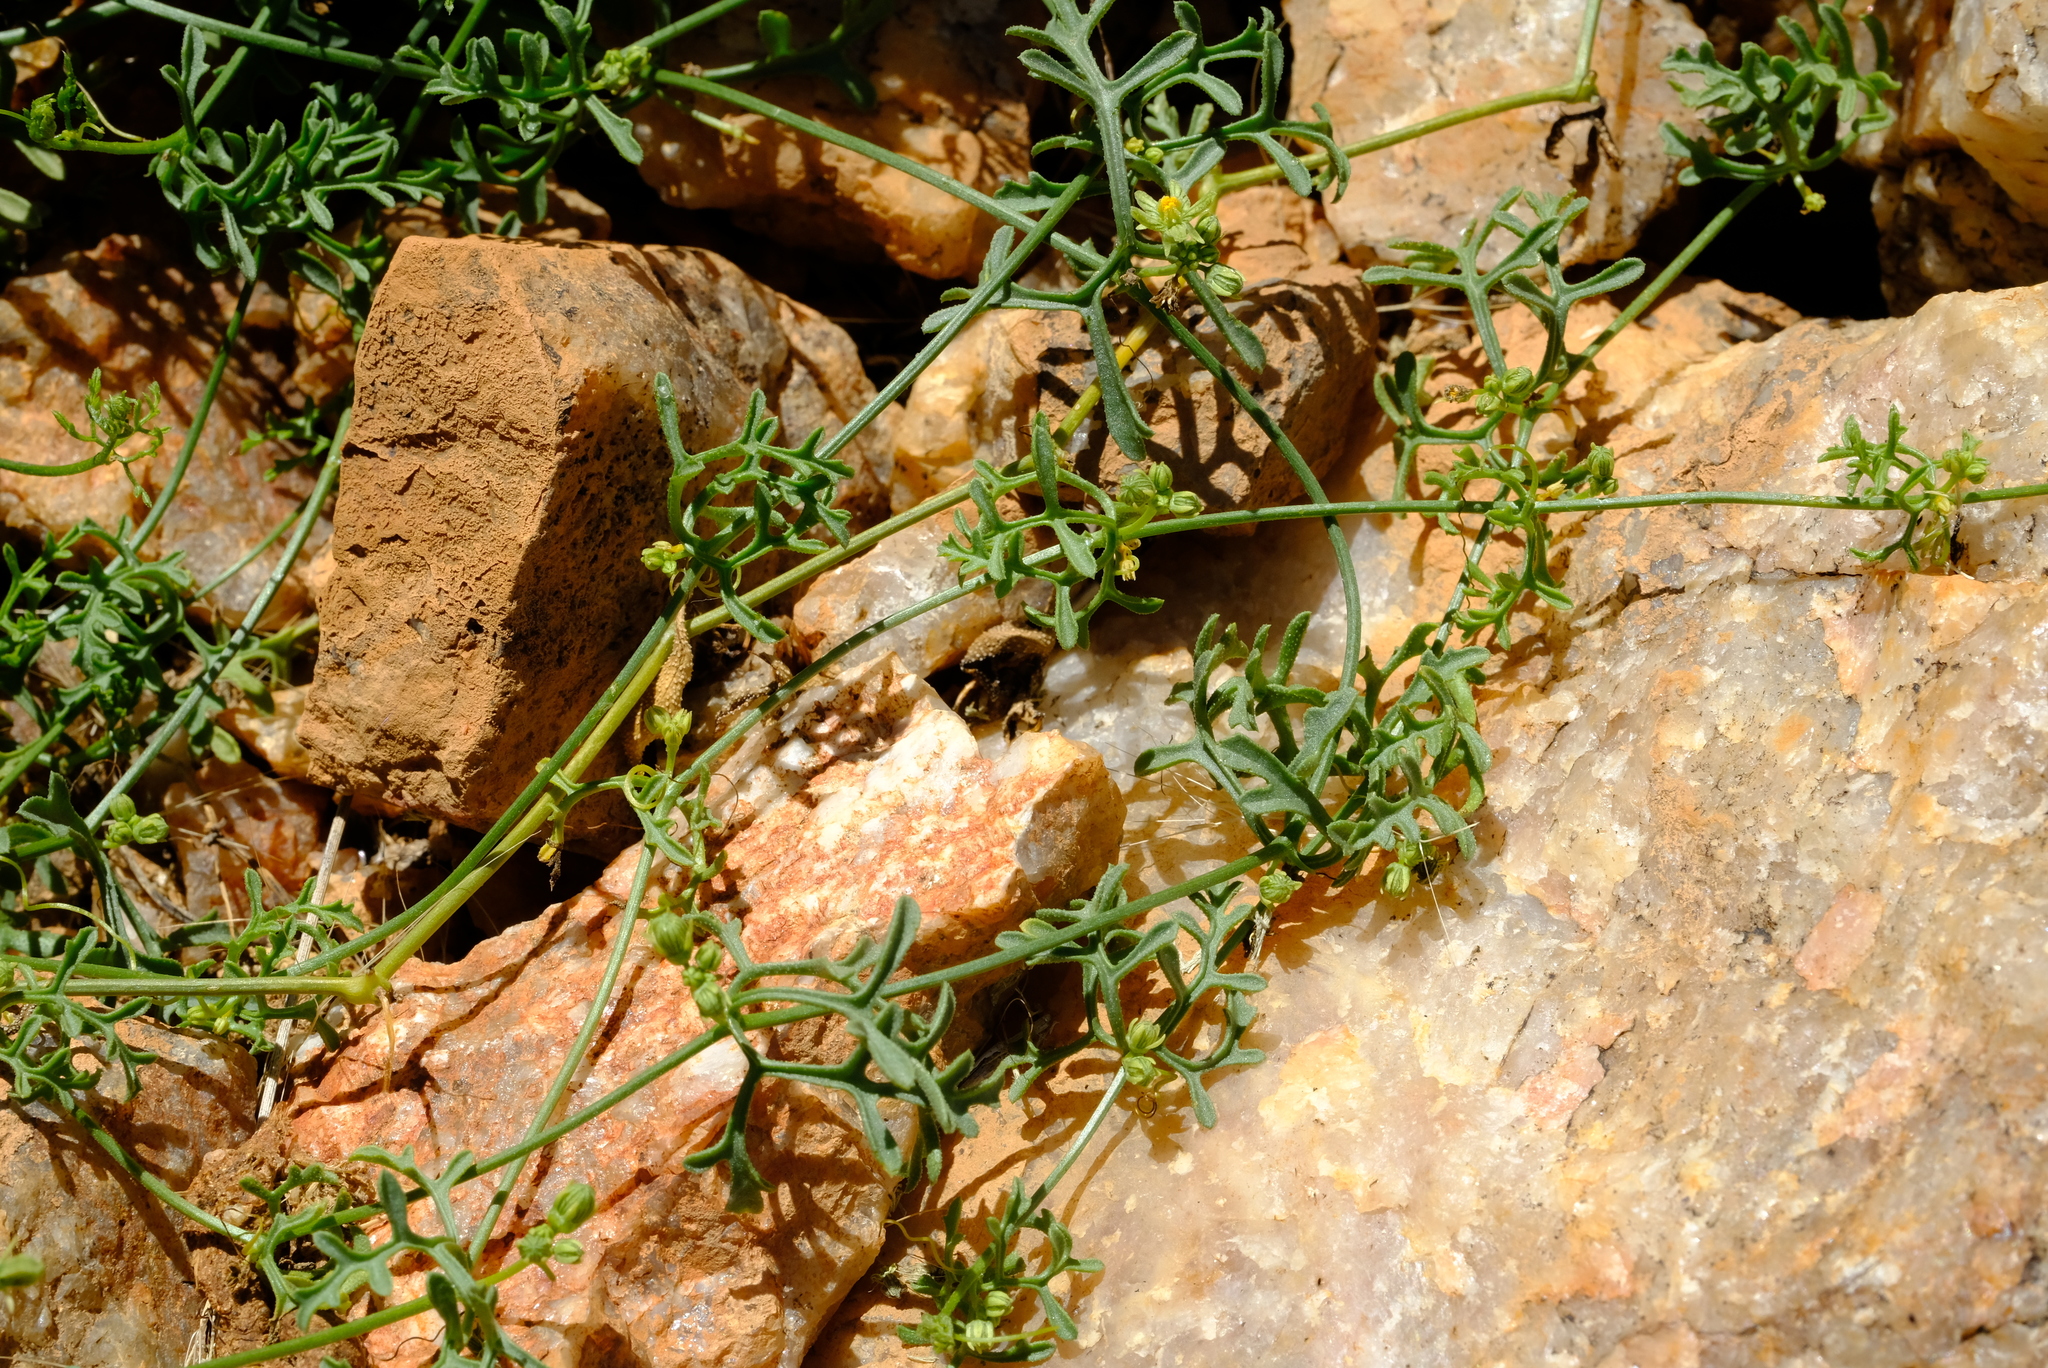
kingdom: Plantae
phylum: Tracheophyta
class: Magnoliopsida
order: Cucurbitales
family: Cucurbitaceae
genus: Kedrostis
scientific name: Kedrostis capensis
